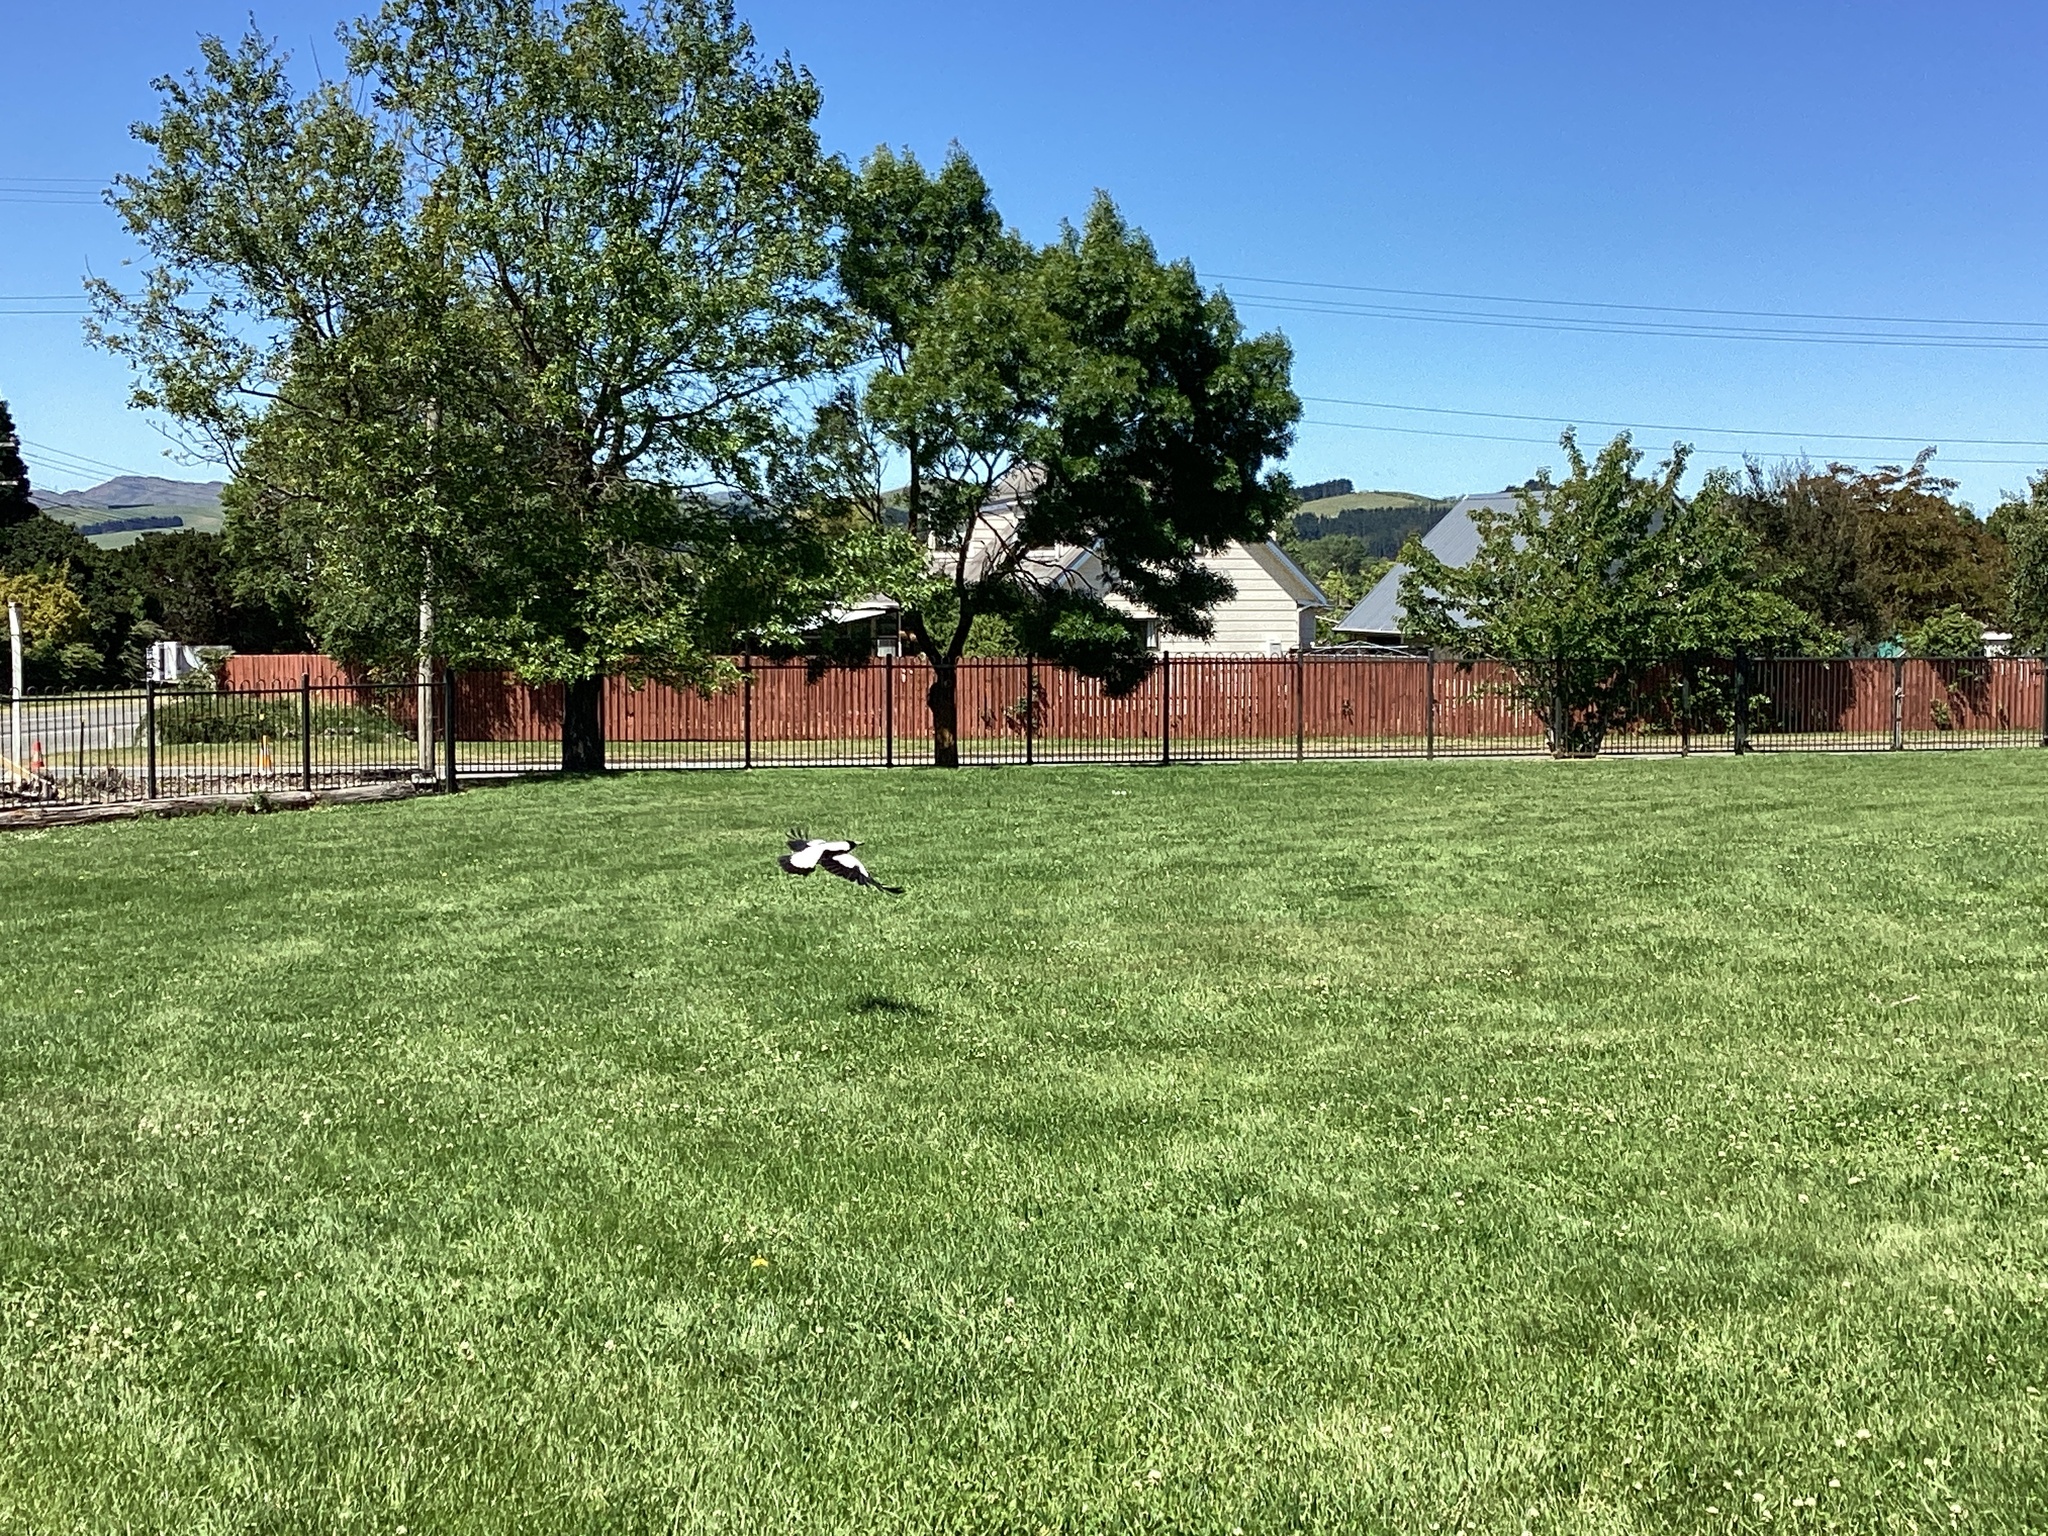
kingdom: Animalia
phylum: Chordata
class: Aves
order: Passeriformes
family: Cracticidae
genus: Gymnorhina
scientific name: Gymnorhina tibicen
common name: Australian magpie
